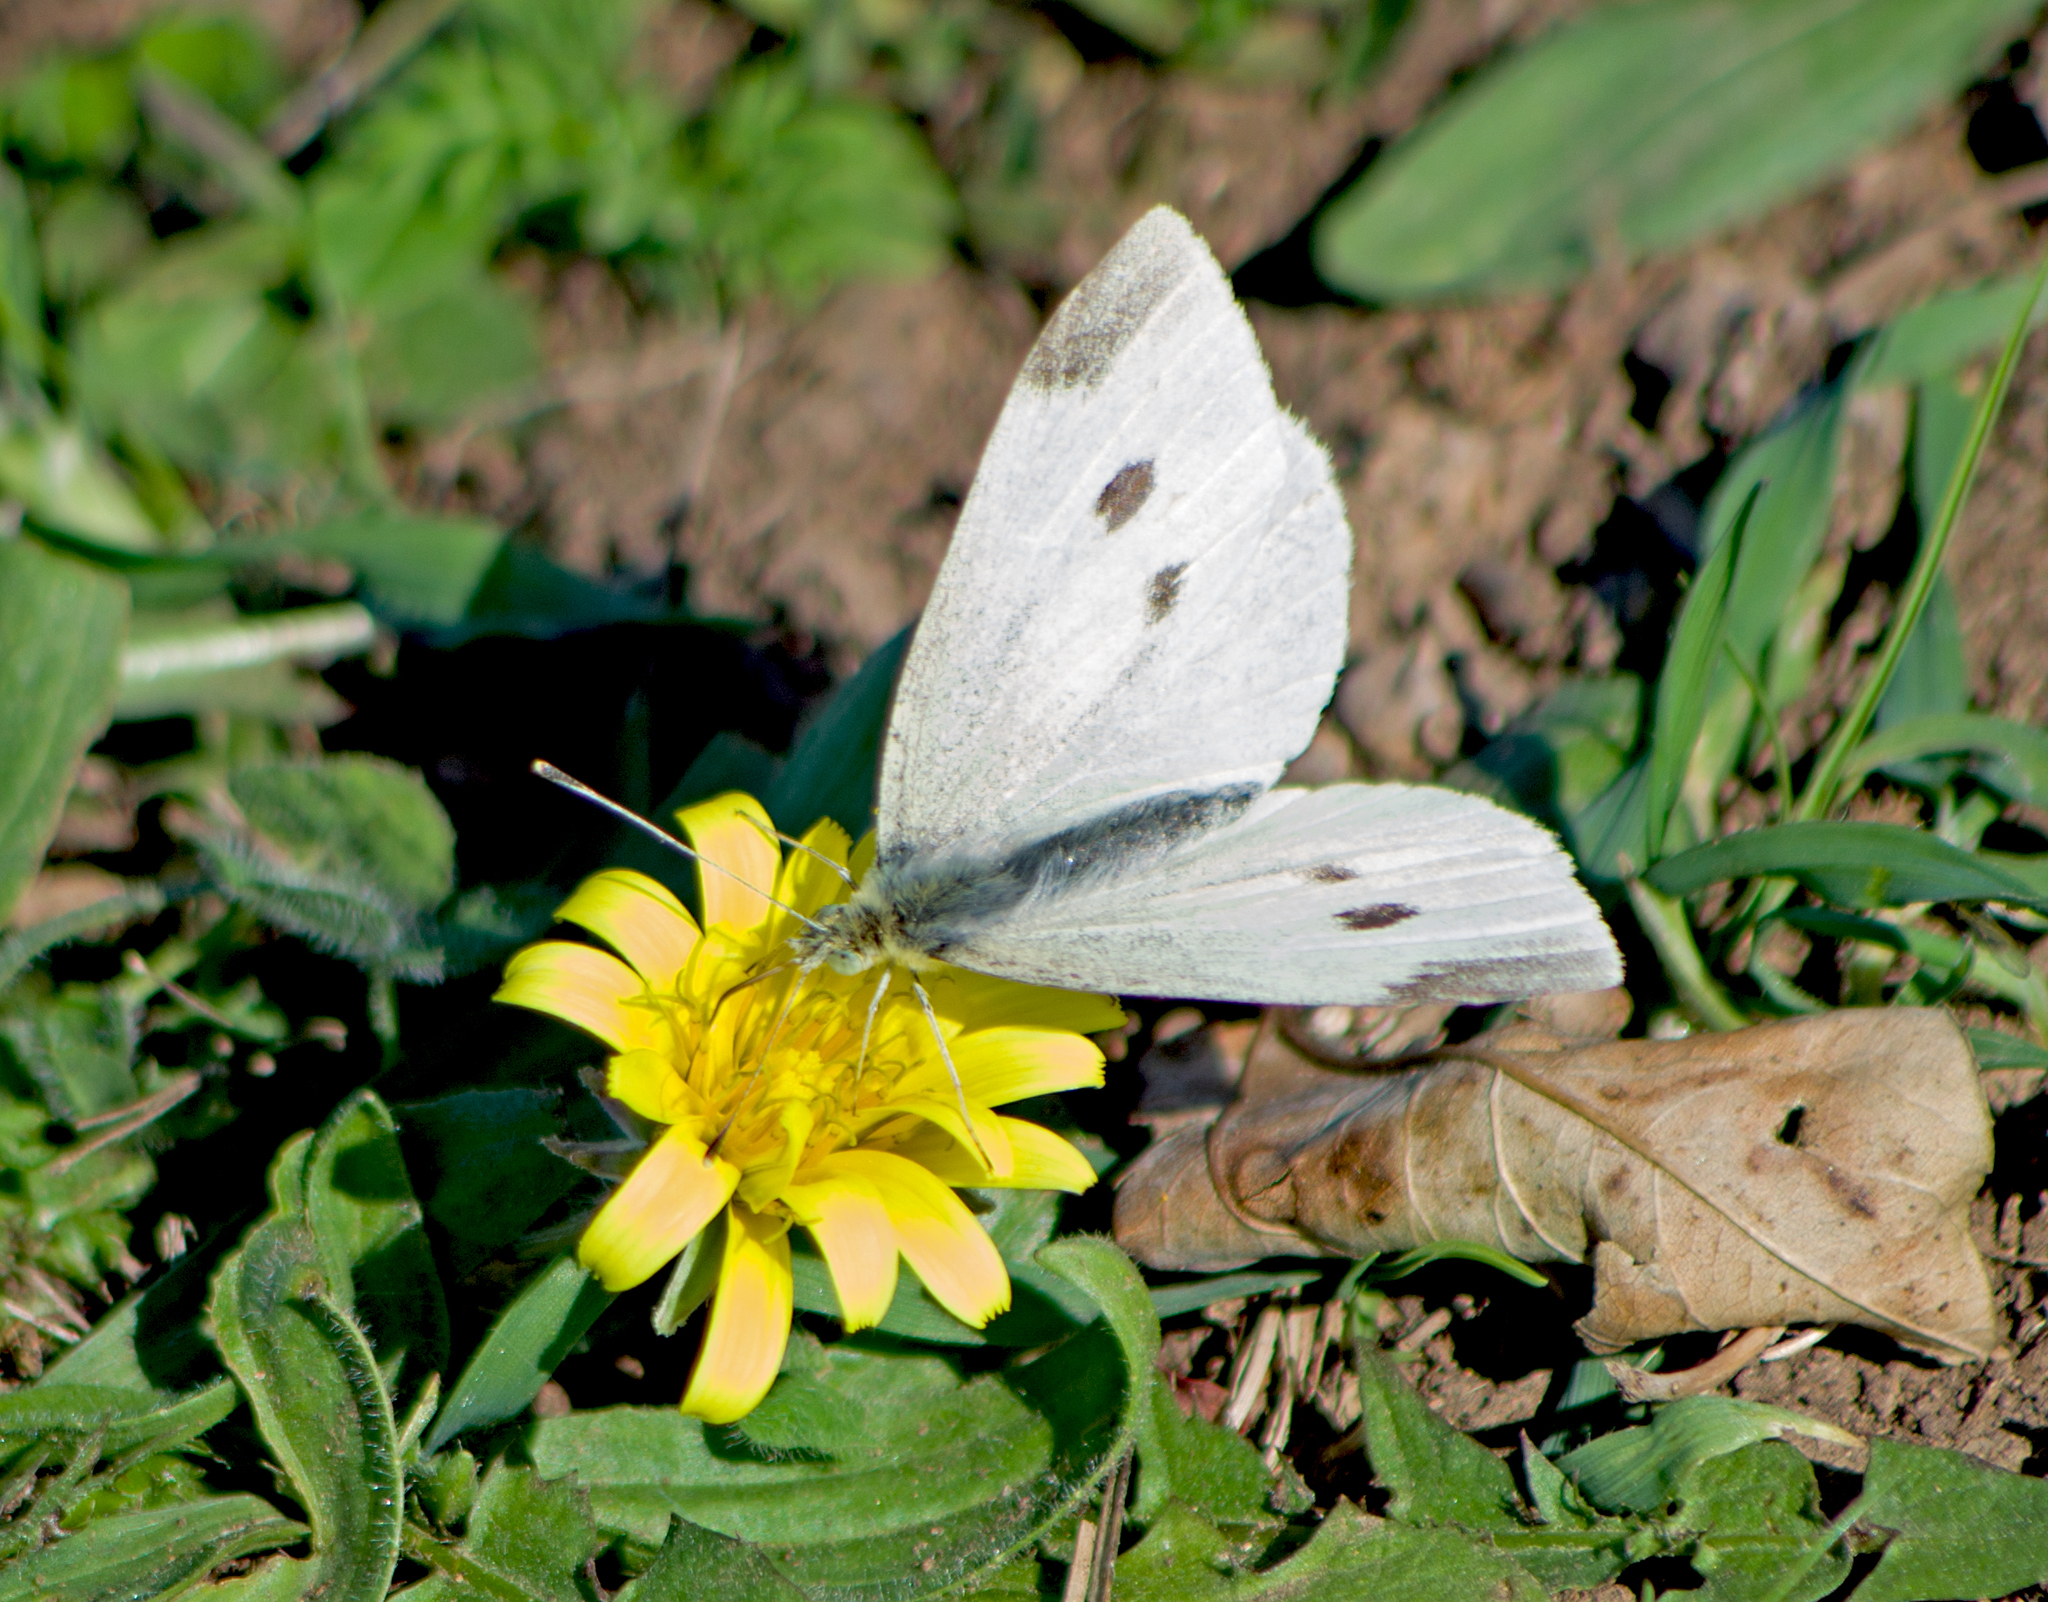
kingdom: Animalia
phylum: Arthropoda
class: Insecta
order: Lepidoptera
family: Pieridae
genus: Pieris
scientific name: Pieris rapae
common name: Small white
